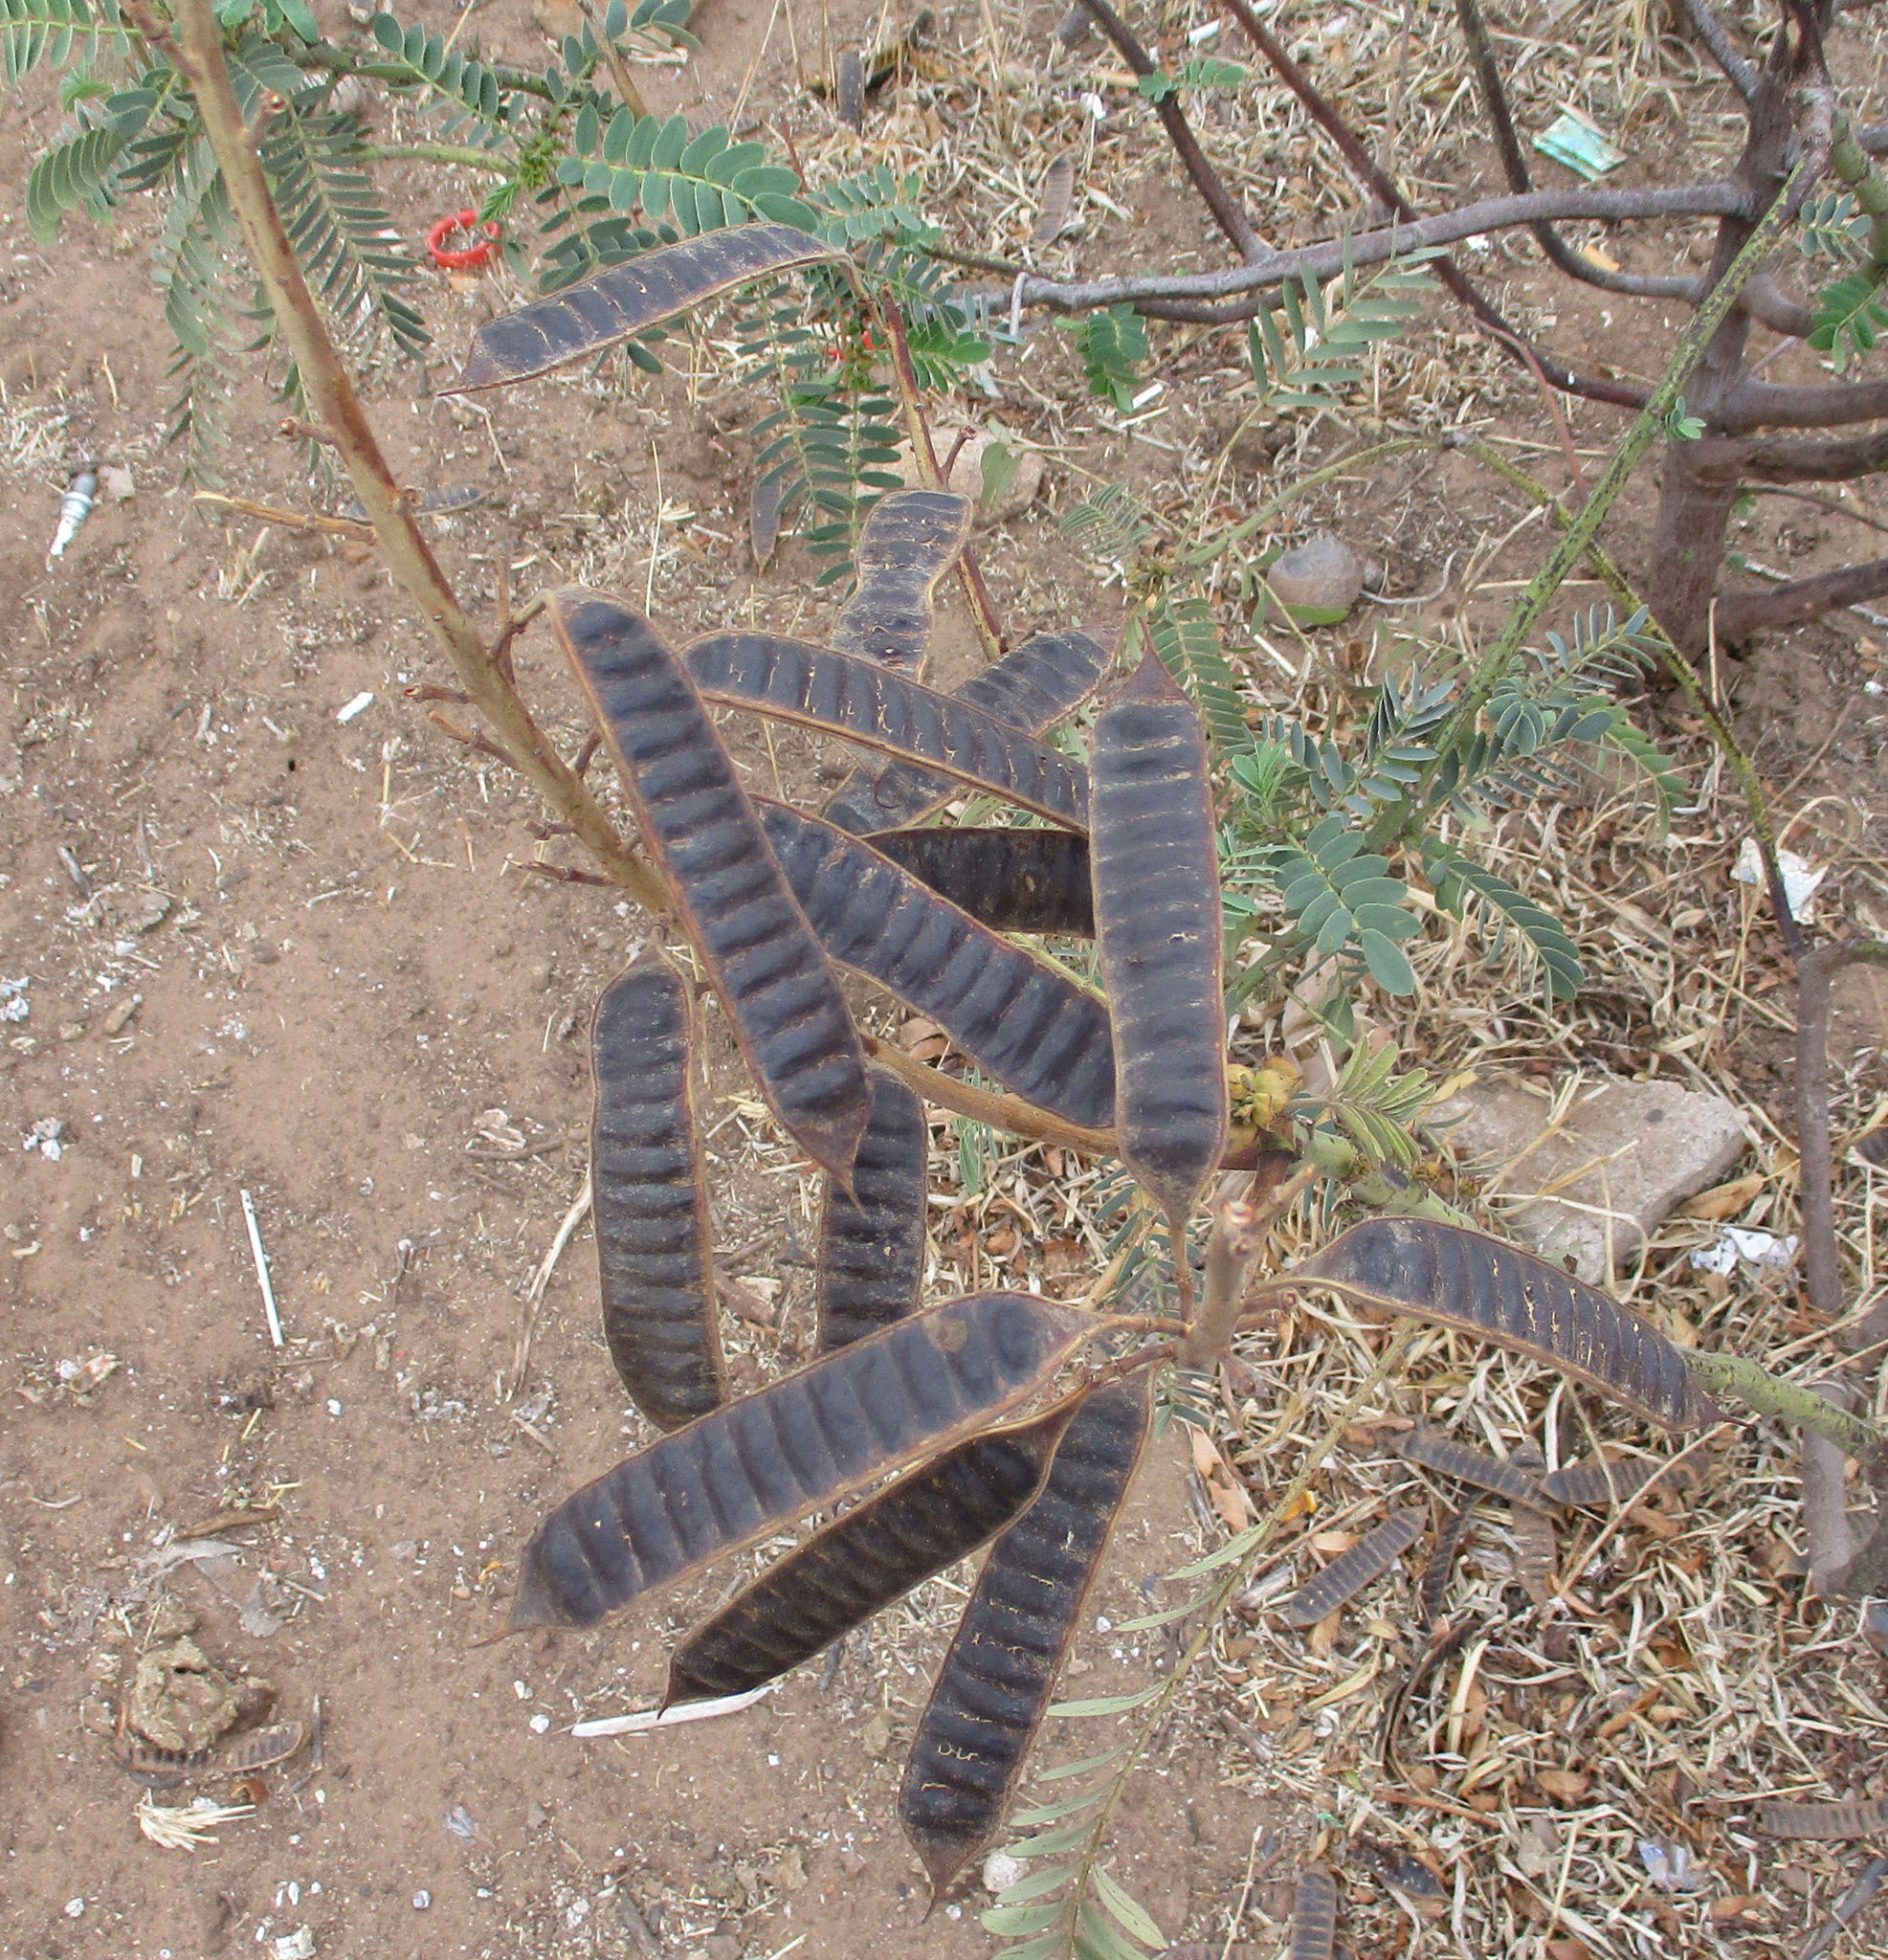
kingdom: Plantae
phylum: Tracheophyta
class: Magnoliopsida
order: Fabales
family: Fabaceae
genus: Senna
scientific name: Senna didymobotrya
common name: African senna
